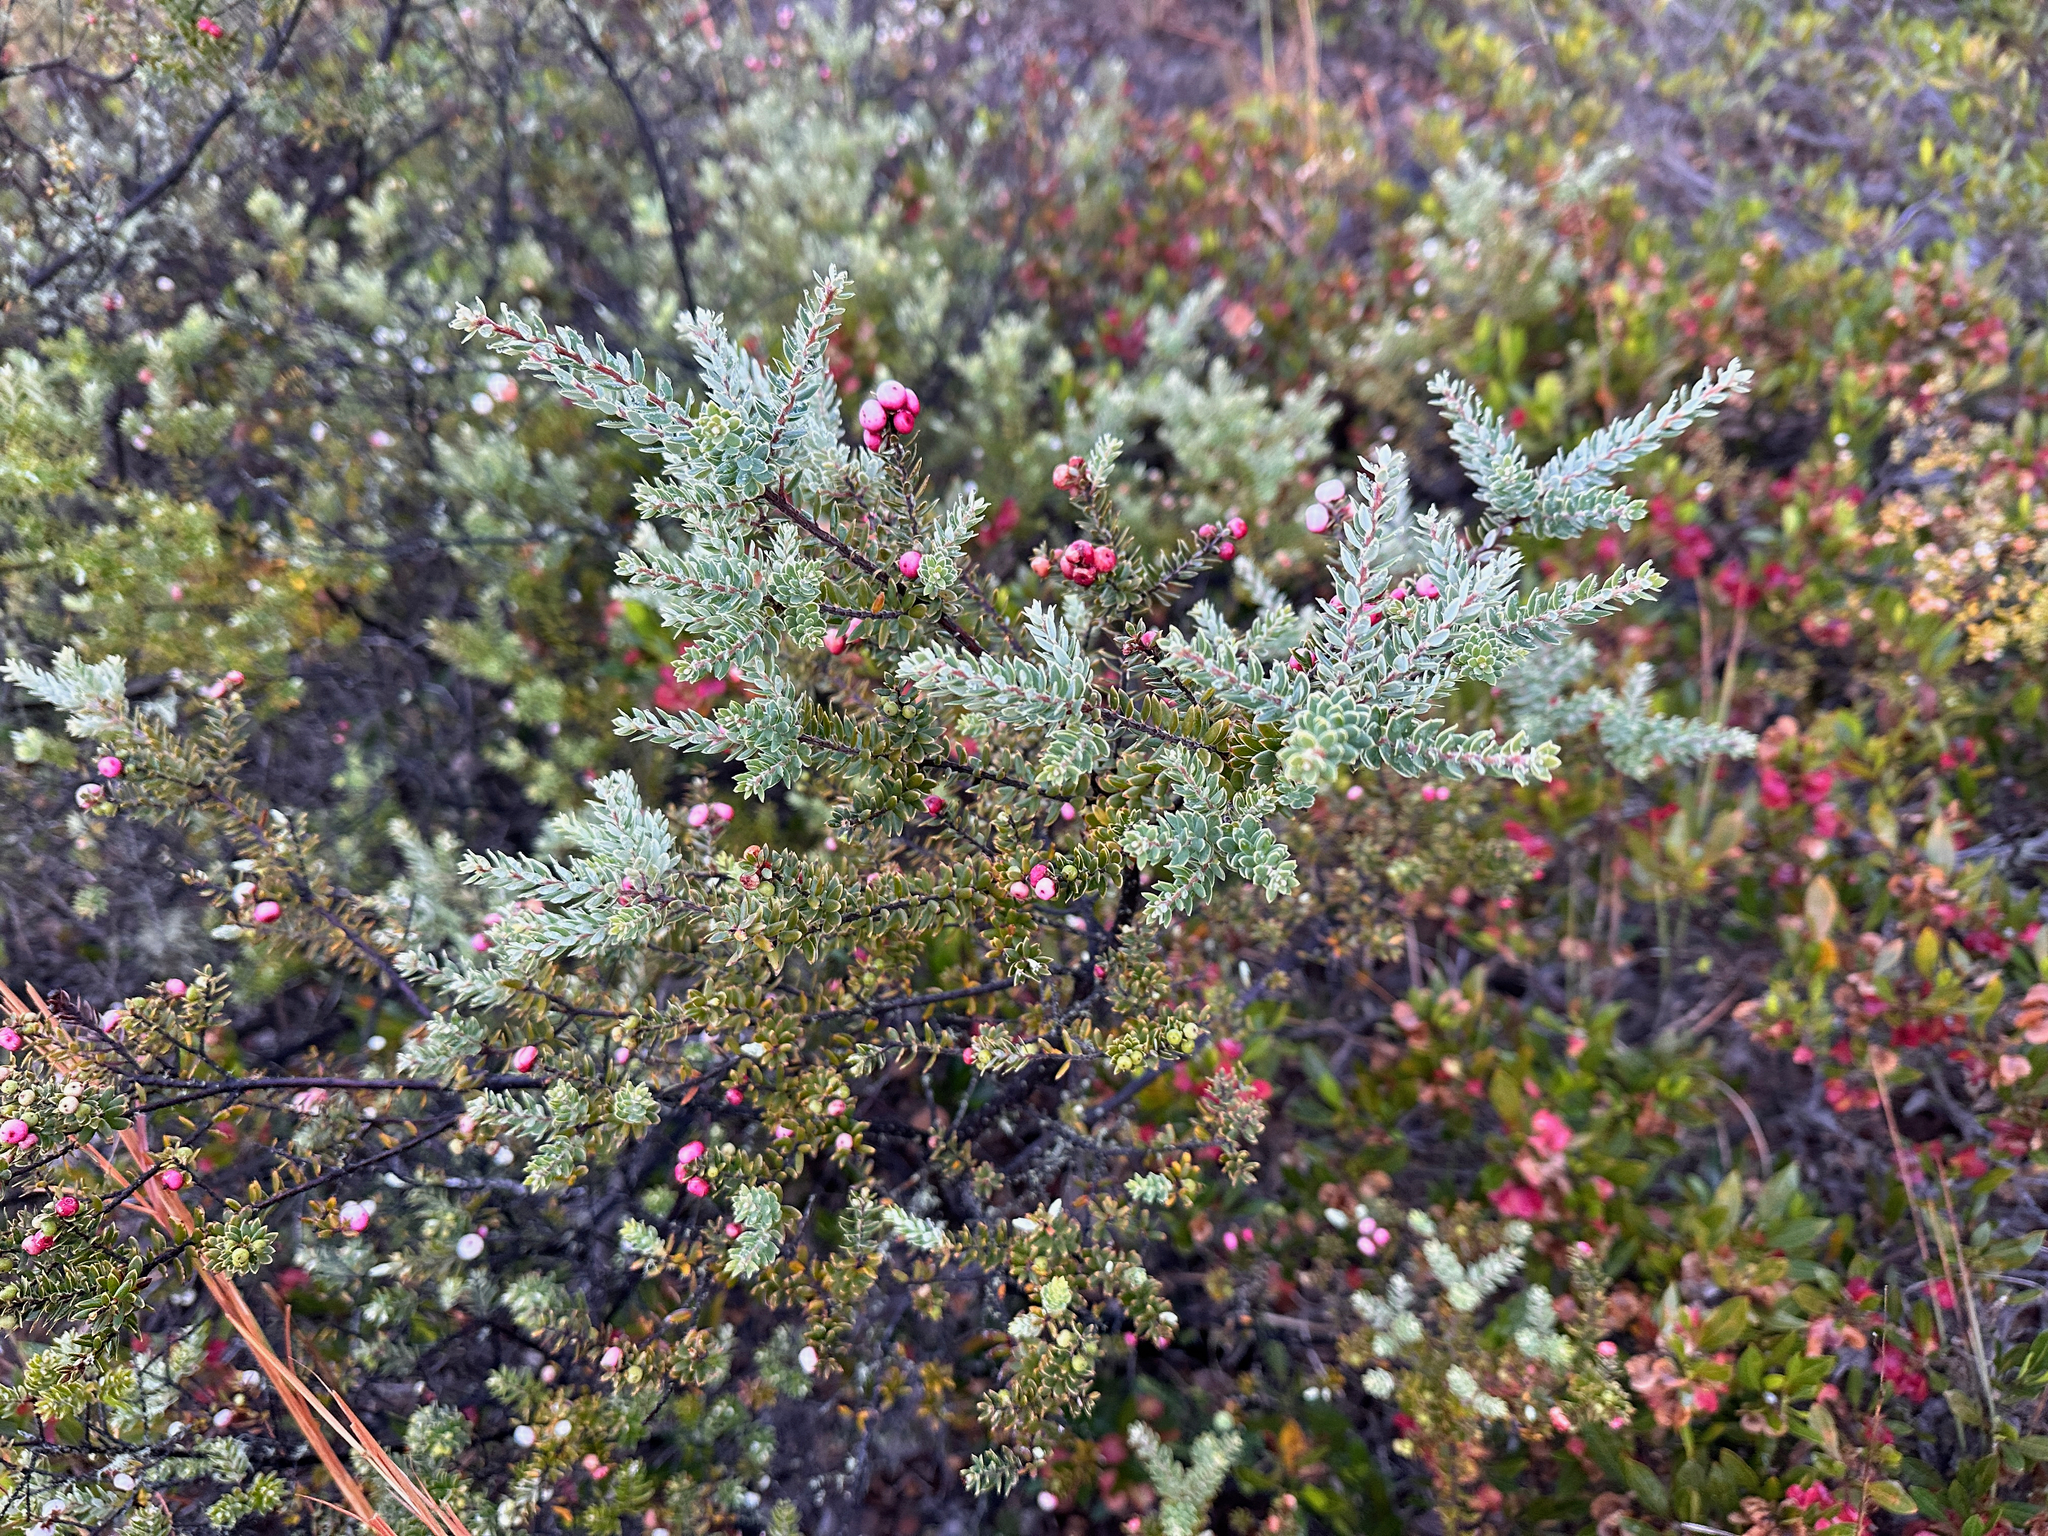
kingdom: Plantae
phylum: Tracheophyta
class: Magnoliopsida
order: Ericales
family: Ericaceae
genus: Leptecophylla
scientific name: Leptecophylla tameiameiae
